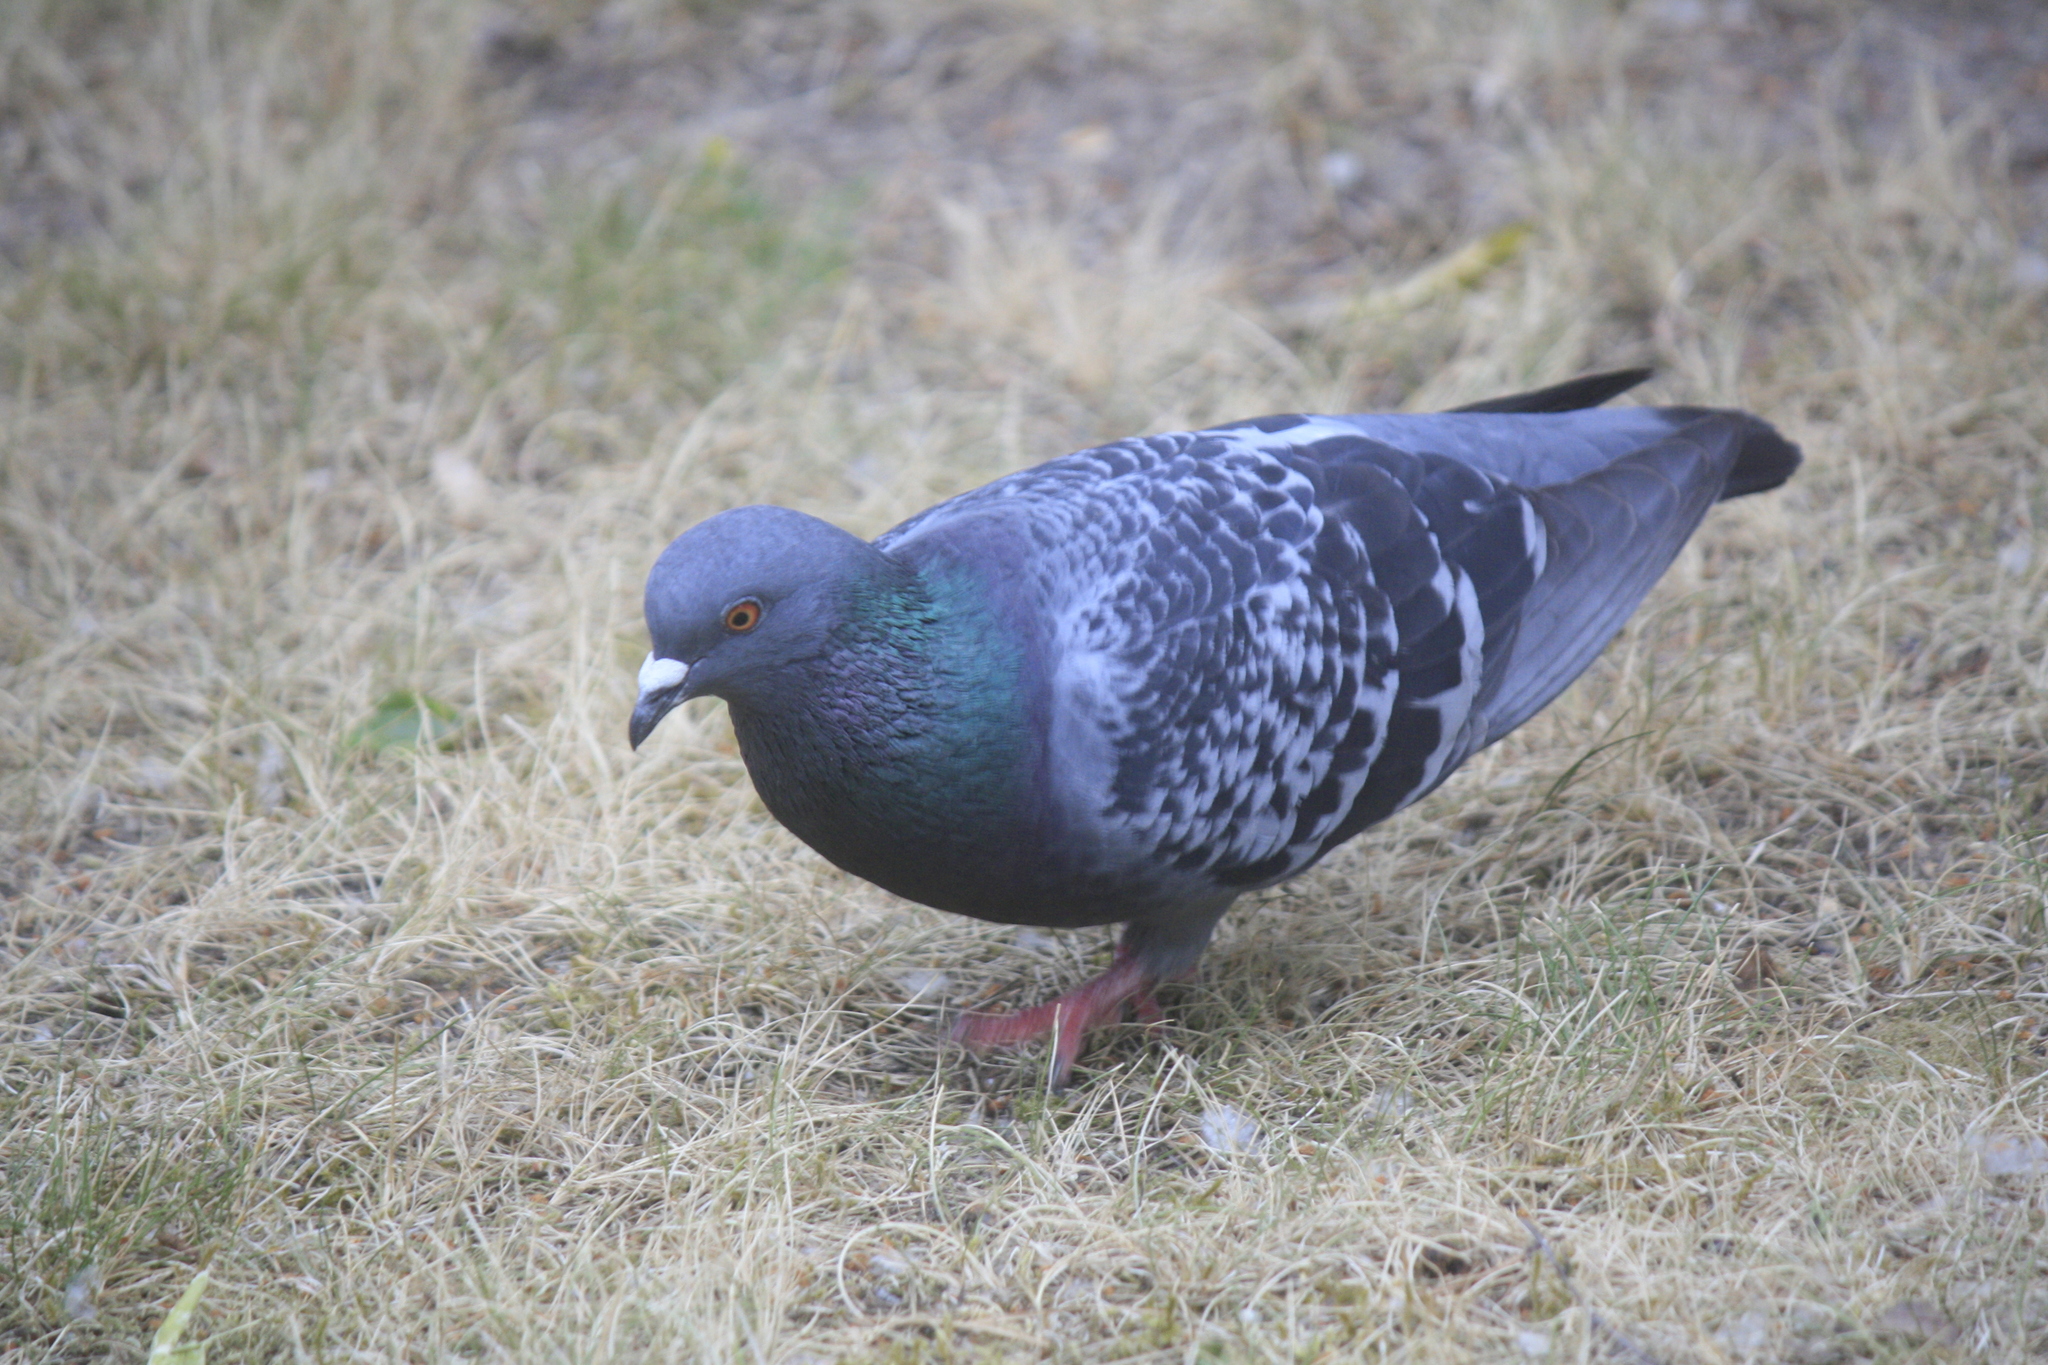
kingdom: Animalia
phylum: Chordata
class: Aves
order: Columbiformes
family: Columbidae
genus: Columba
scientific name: Columba livia
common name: Rock pigeon
